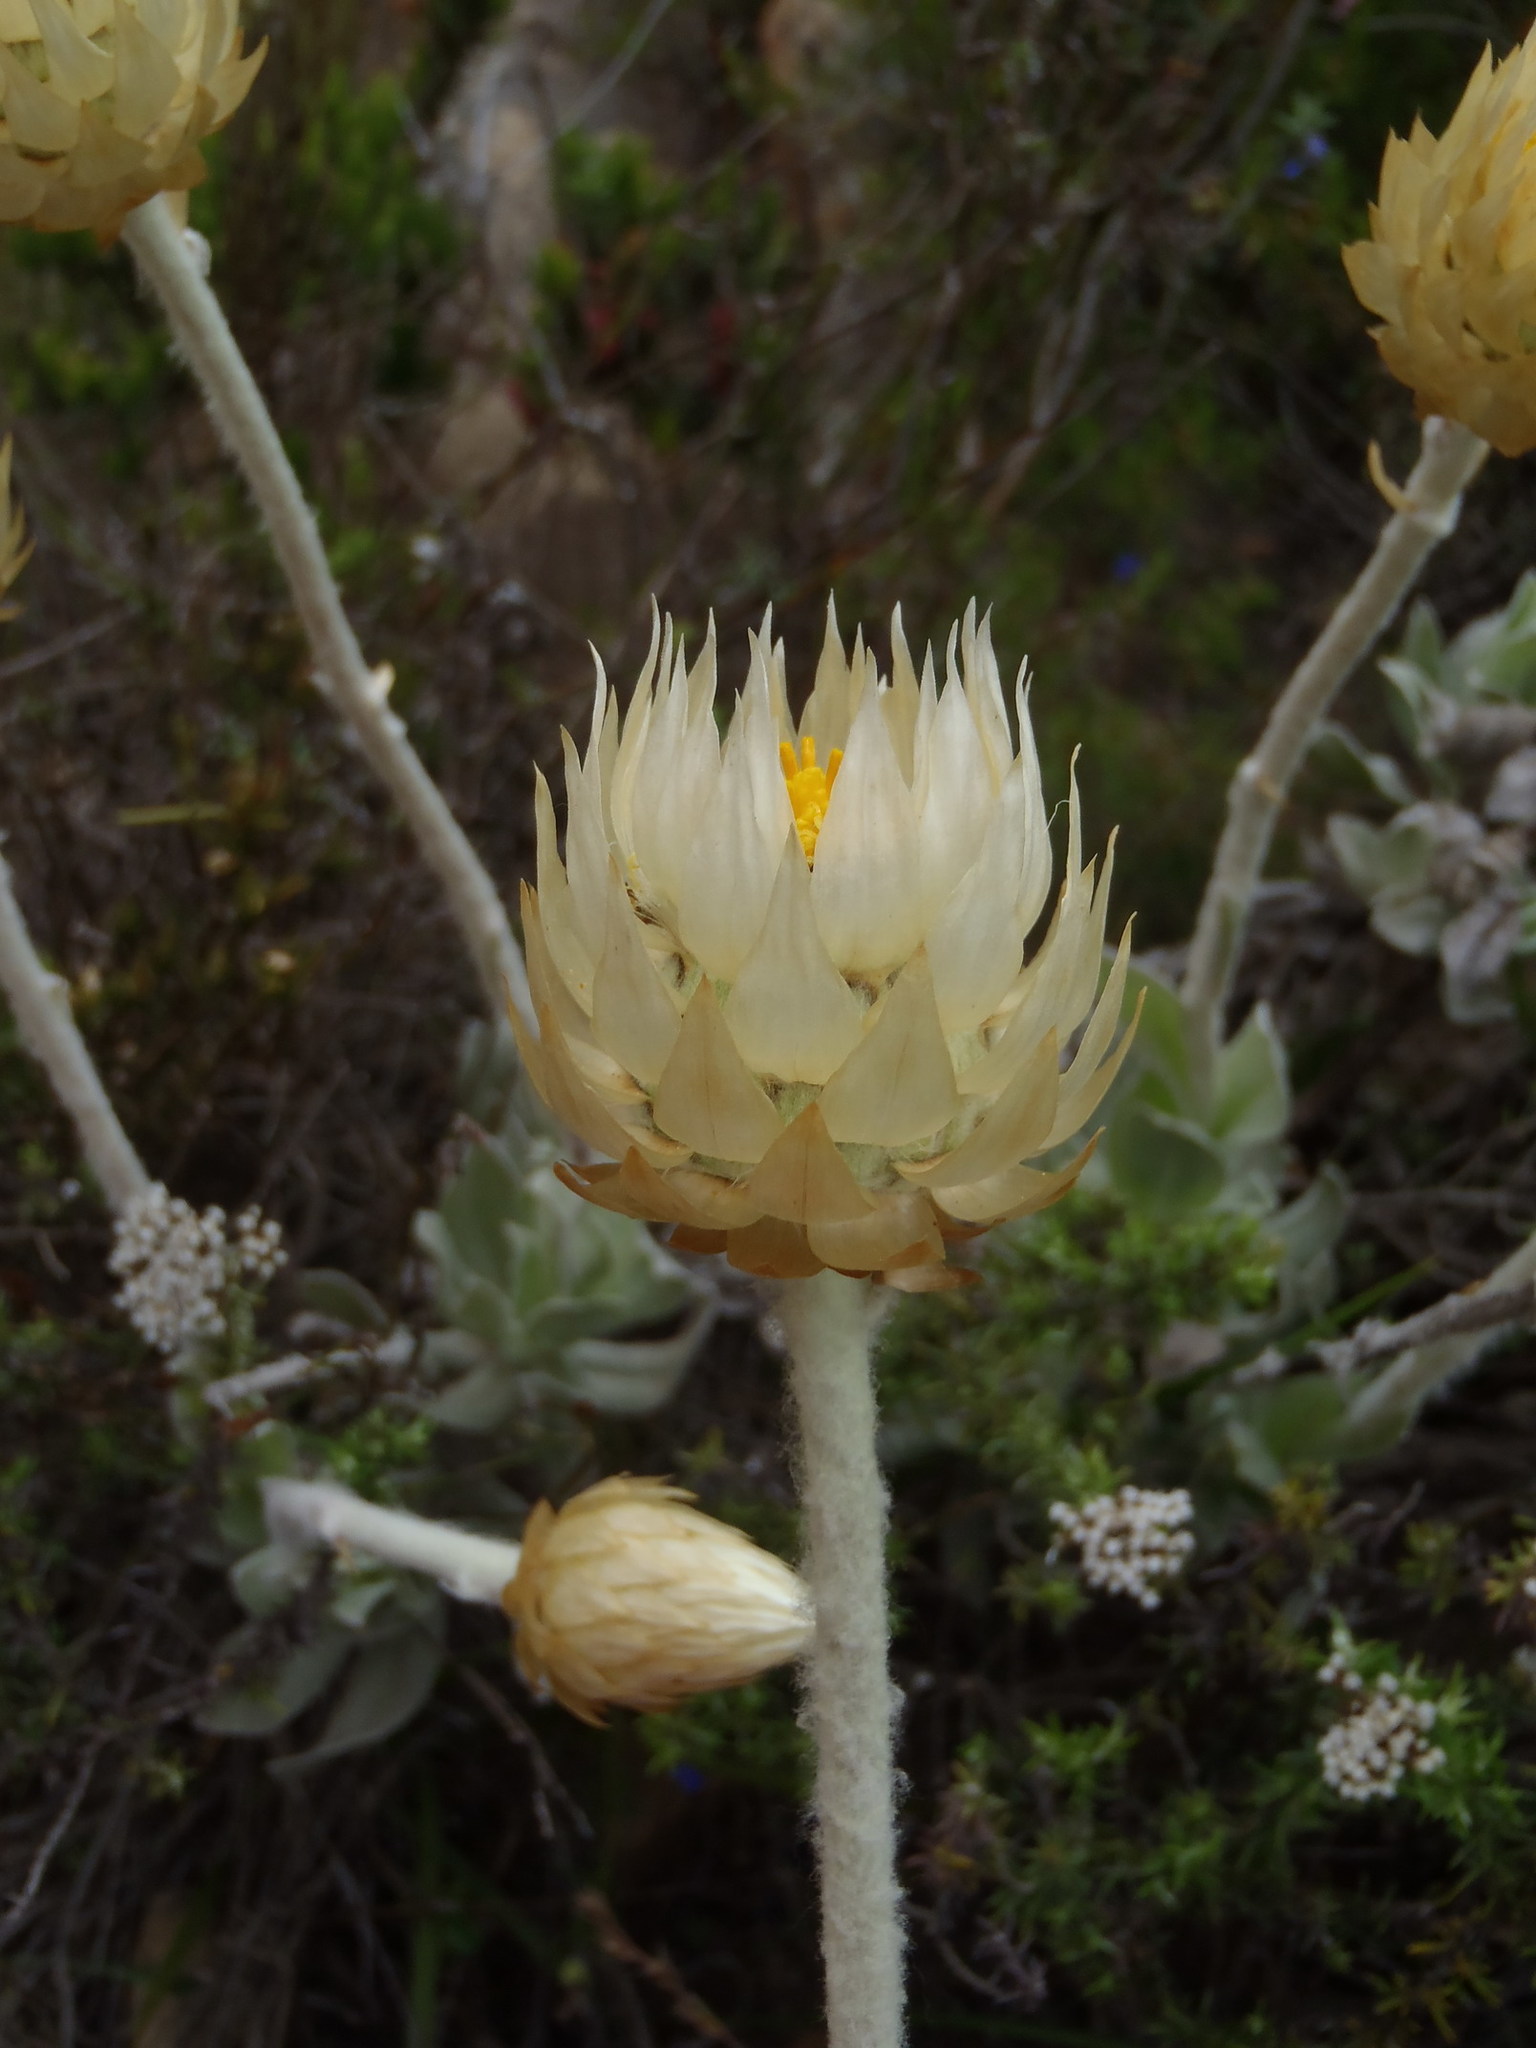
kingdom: Plantae
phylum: Tracheophyta
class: Magnoliopsida
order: Asterales
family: Asteraceae
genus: Syncarpha
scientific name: Syncarpha speciosissima
